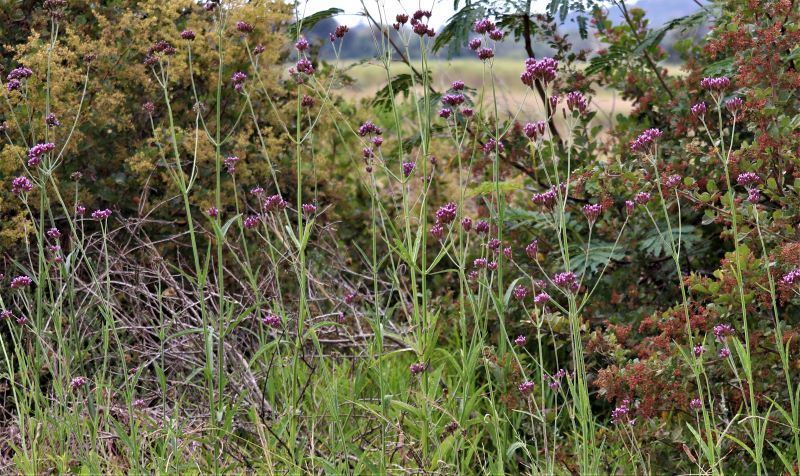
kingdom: Plantae
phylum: Tracheophyta
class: Magnoliopsida
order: Lamiales
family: Verbenaceae
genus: Verbena
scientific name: Verbena bonariensis
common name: Purpletop vervain
